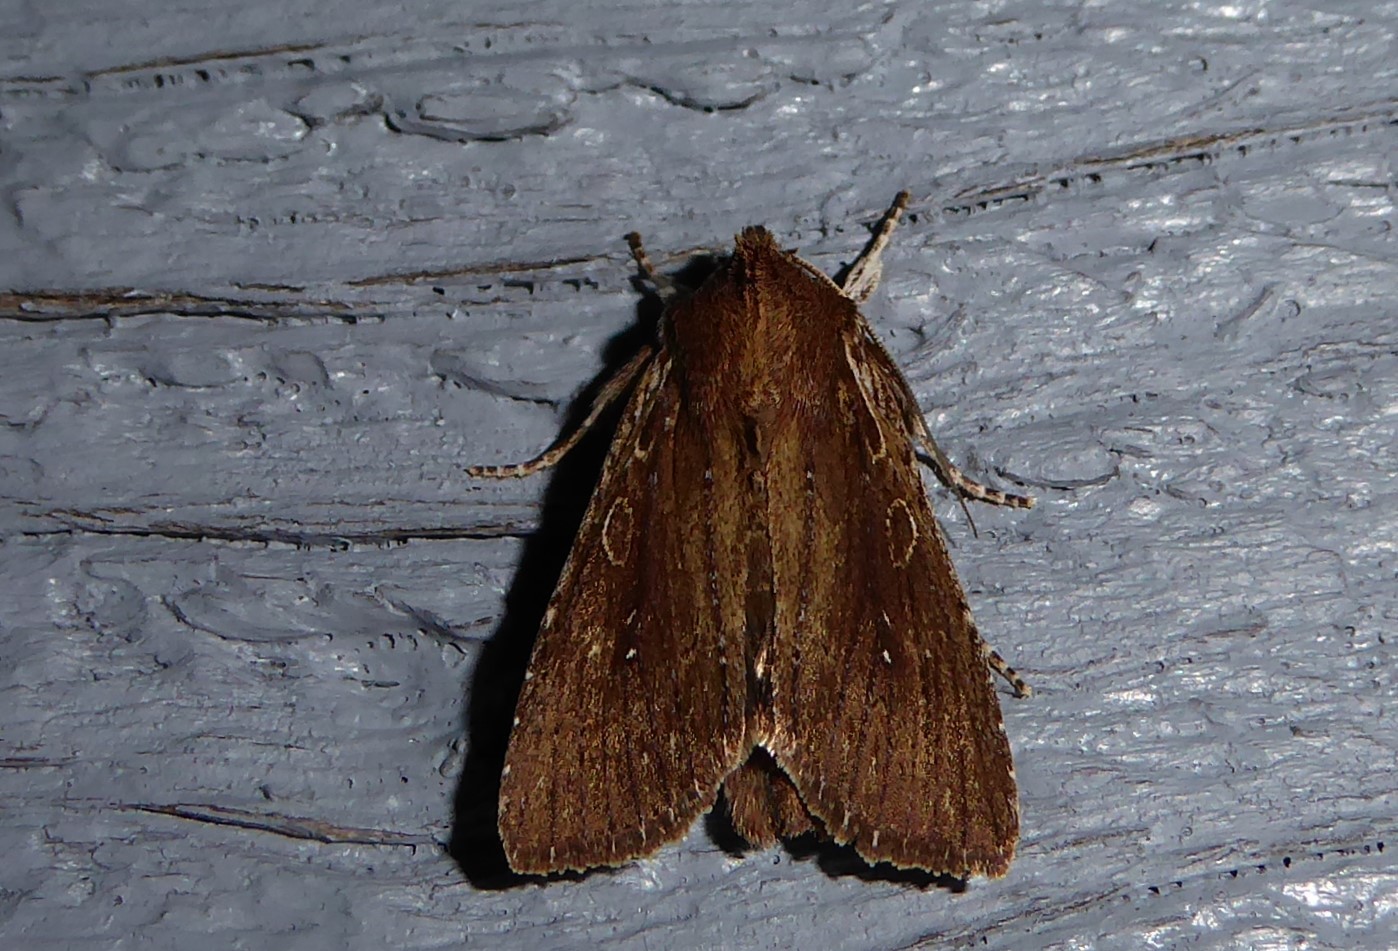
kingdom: Animalia
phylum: Arthropoda
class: Insecta
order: Lepidoptera
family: Noctuidae
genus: Ichneutica
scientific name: Ichneutica
